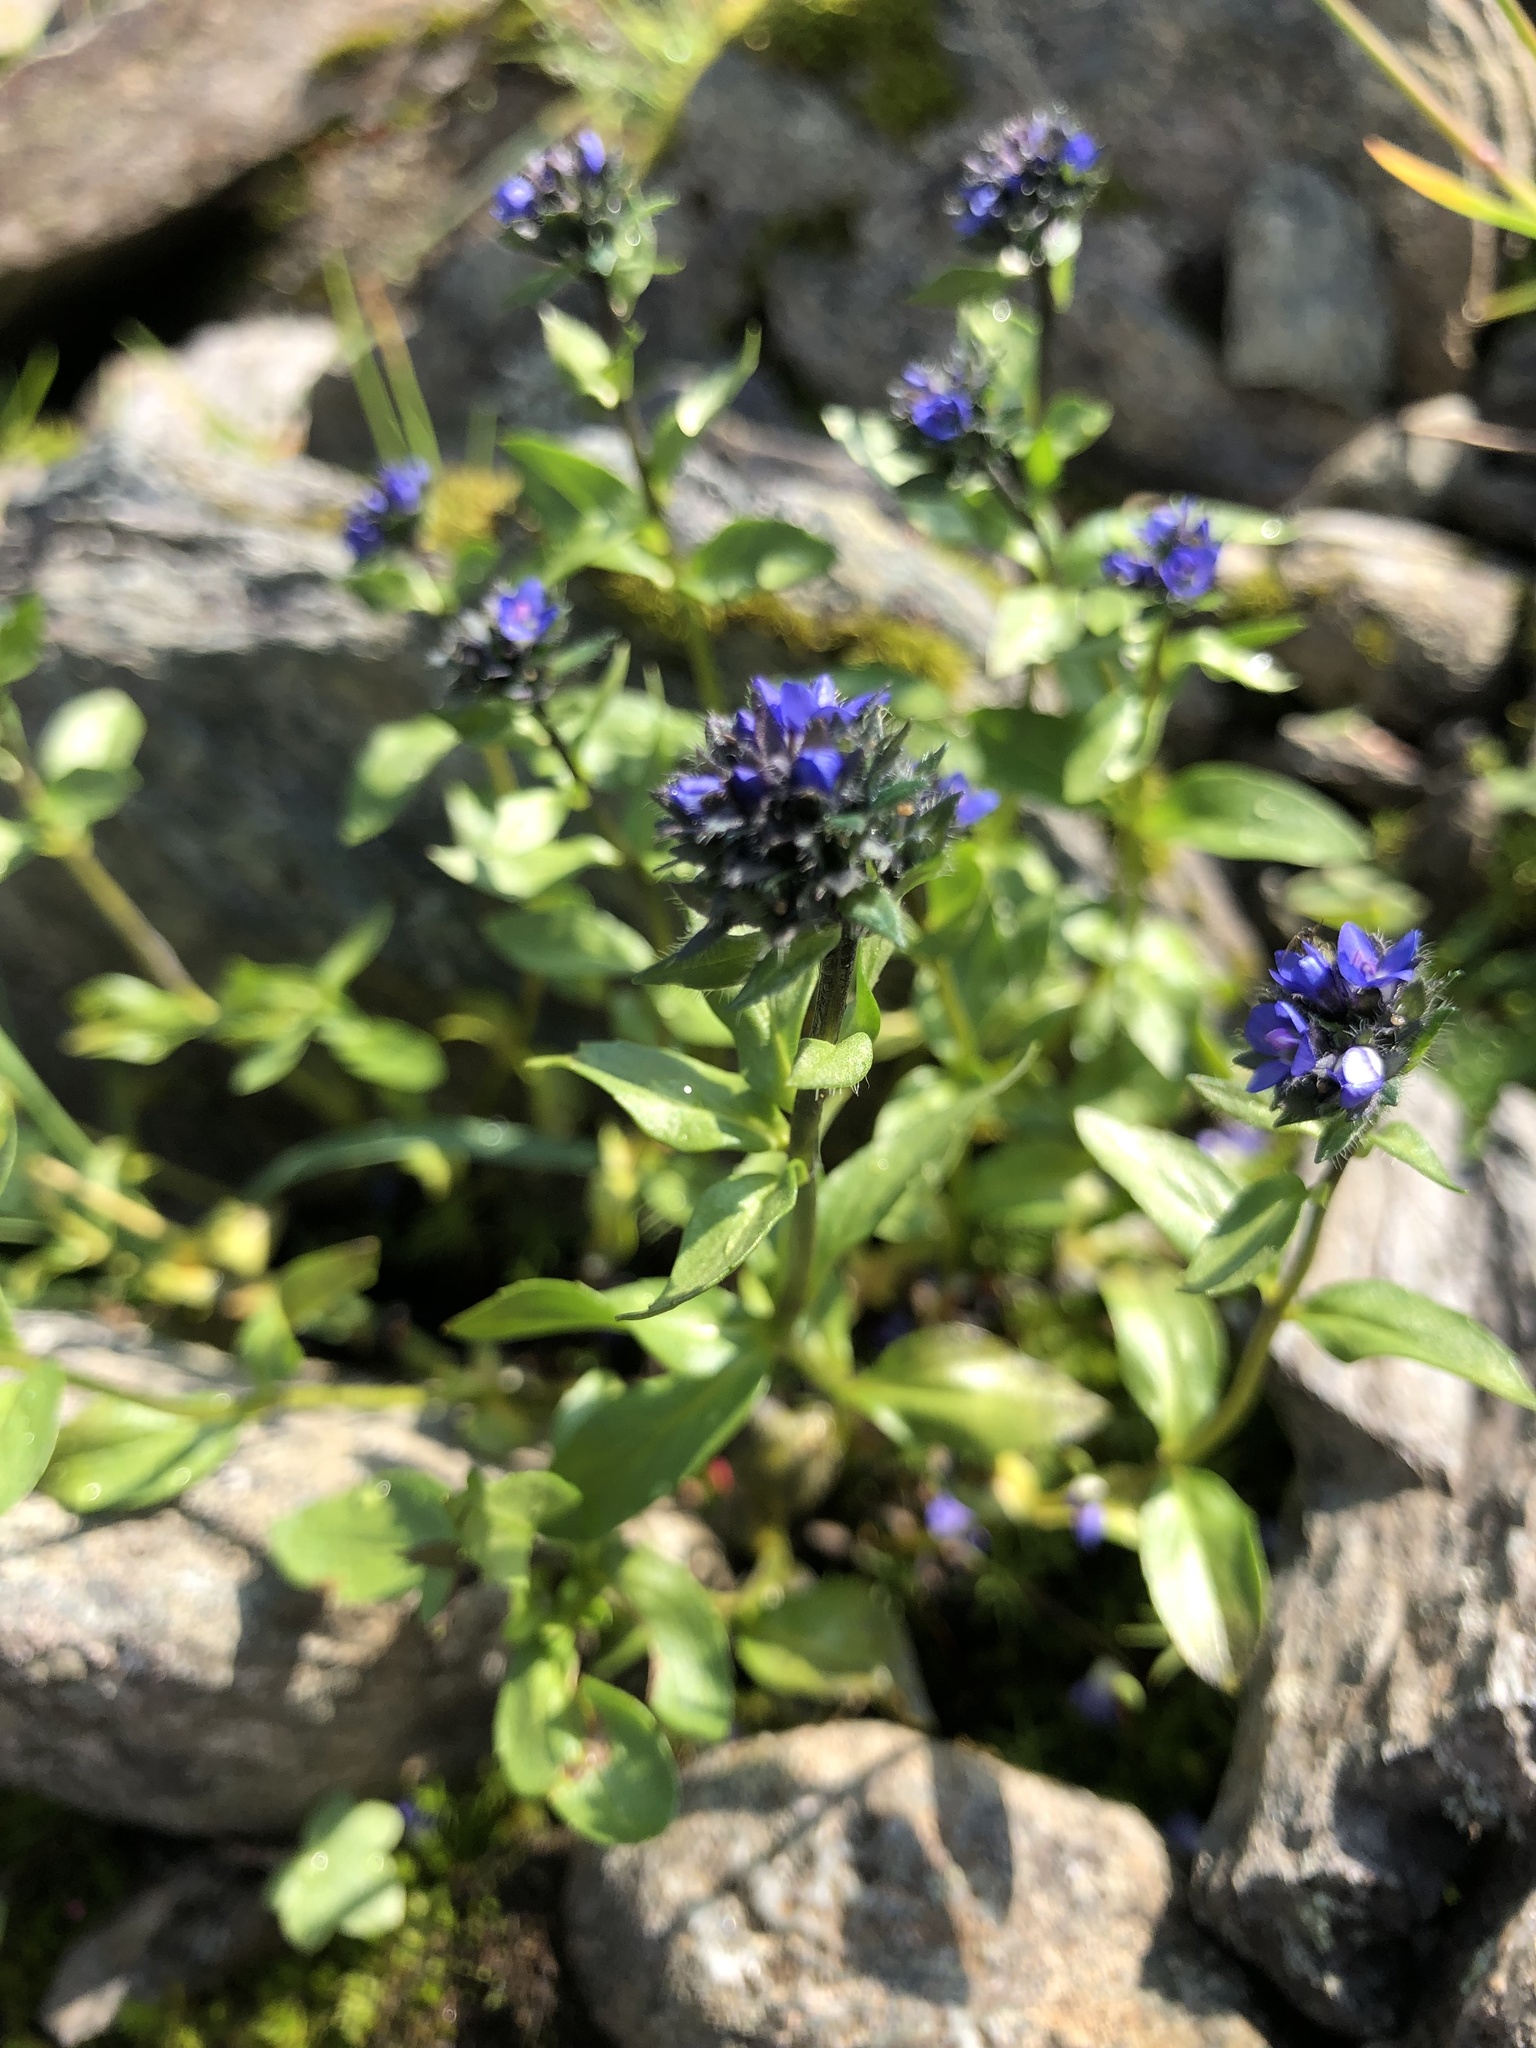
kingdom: Plantae
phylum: Tracheophyta
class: Magnoliopsida
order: Lamiales
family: Plantaginaceae
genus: Veronica
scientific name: Veronica alpina
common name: Alpine speedwell
